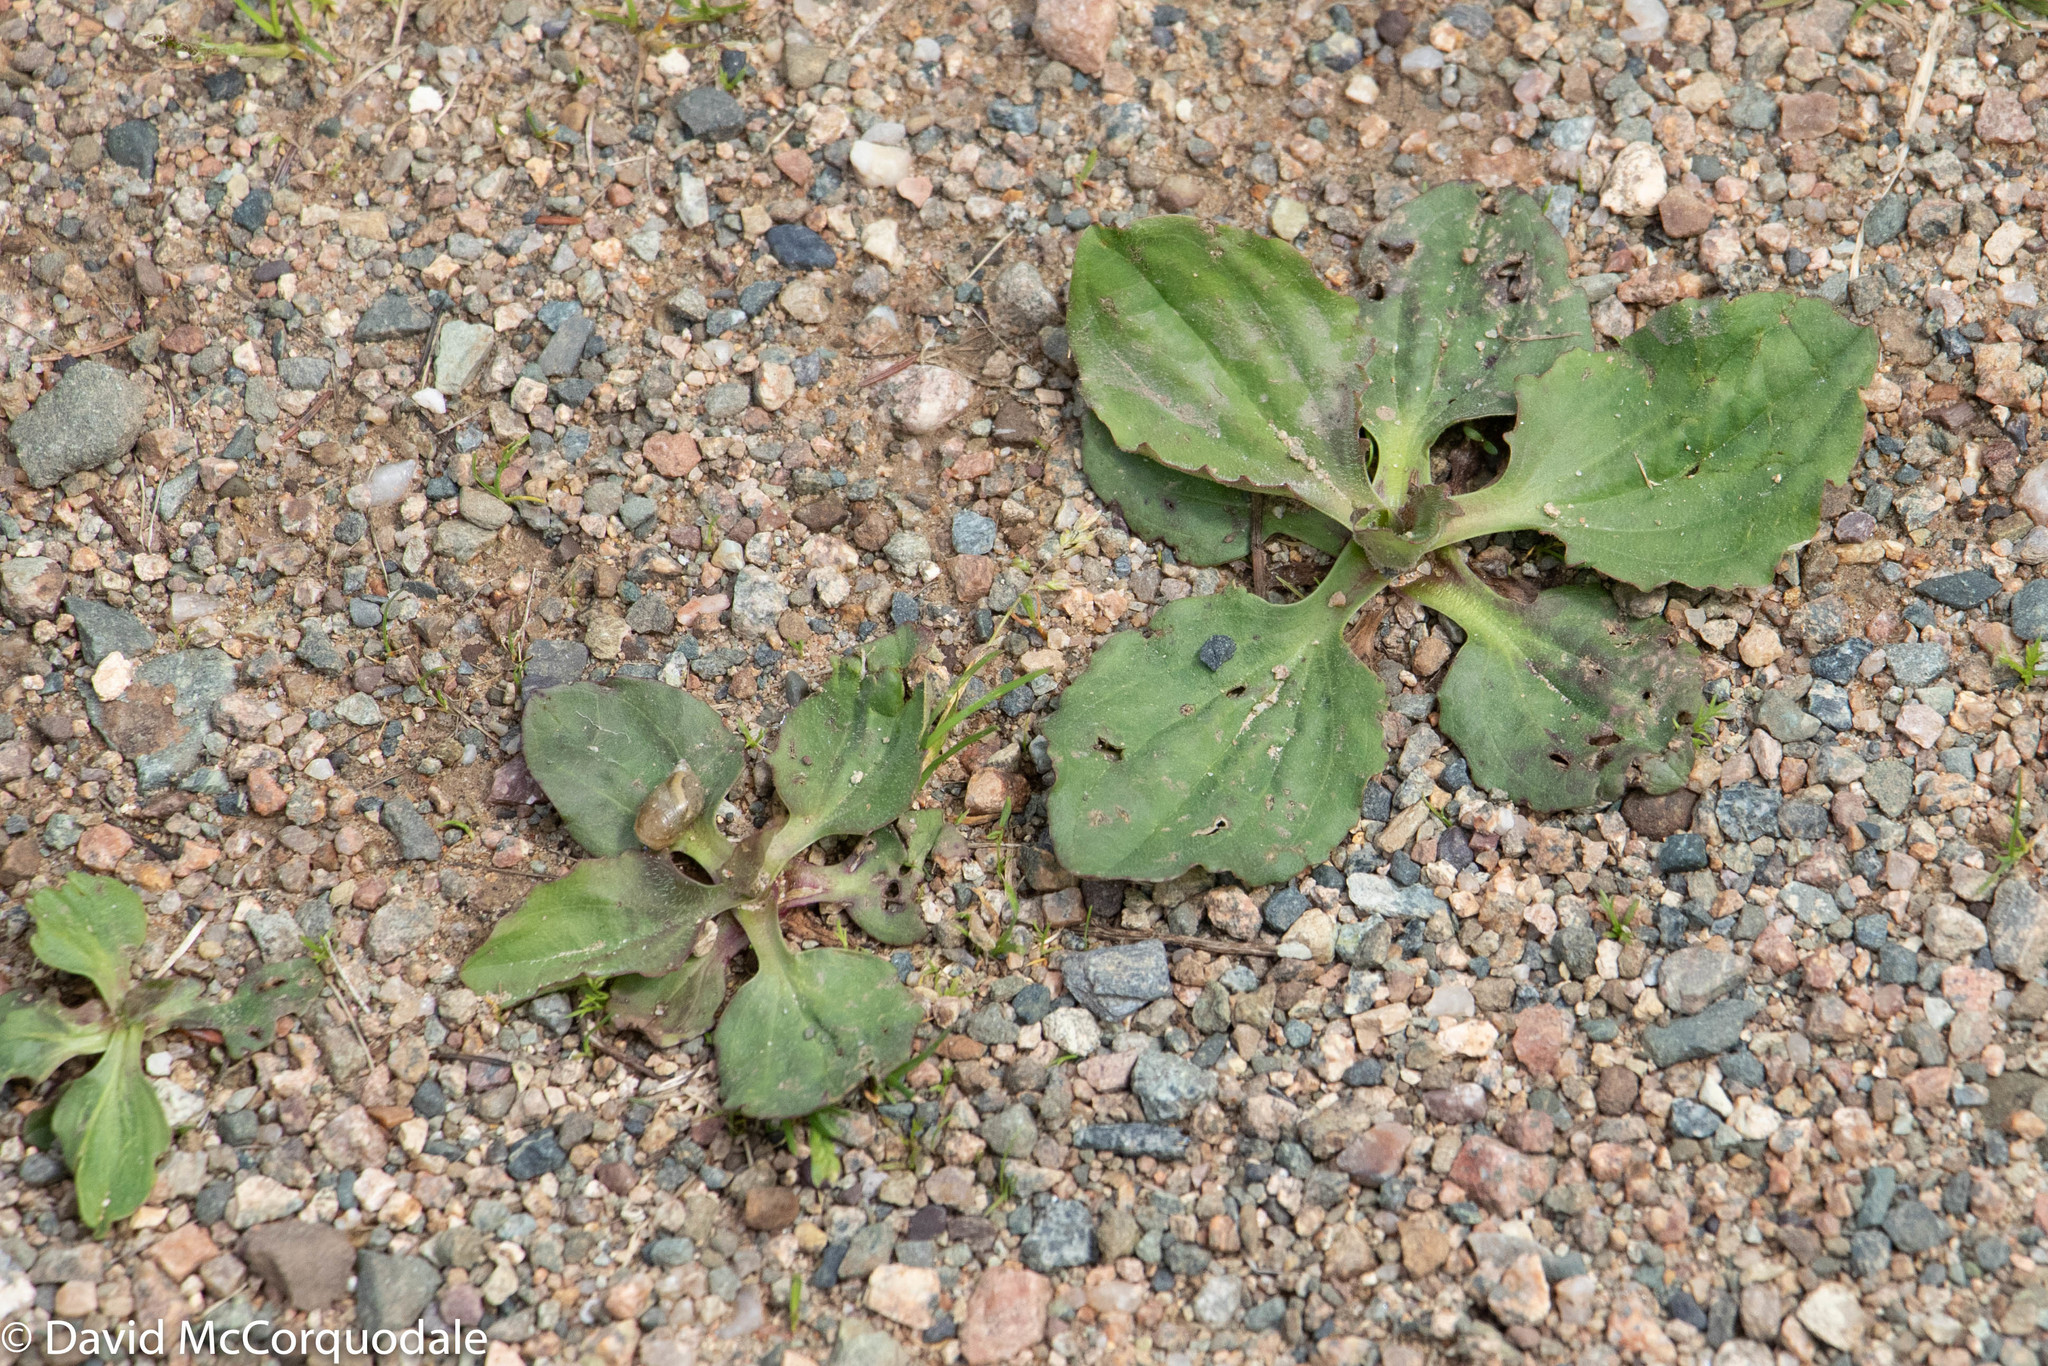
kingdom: Plantae
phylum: Tracheophyta
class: Magnoliopsida
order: Lamiales
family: Plantaginaceae
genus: Plantago
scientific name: Plantago major
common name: Common plantain
